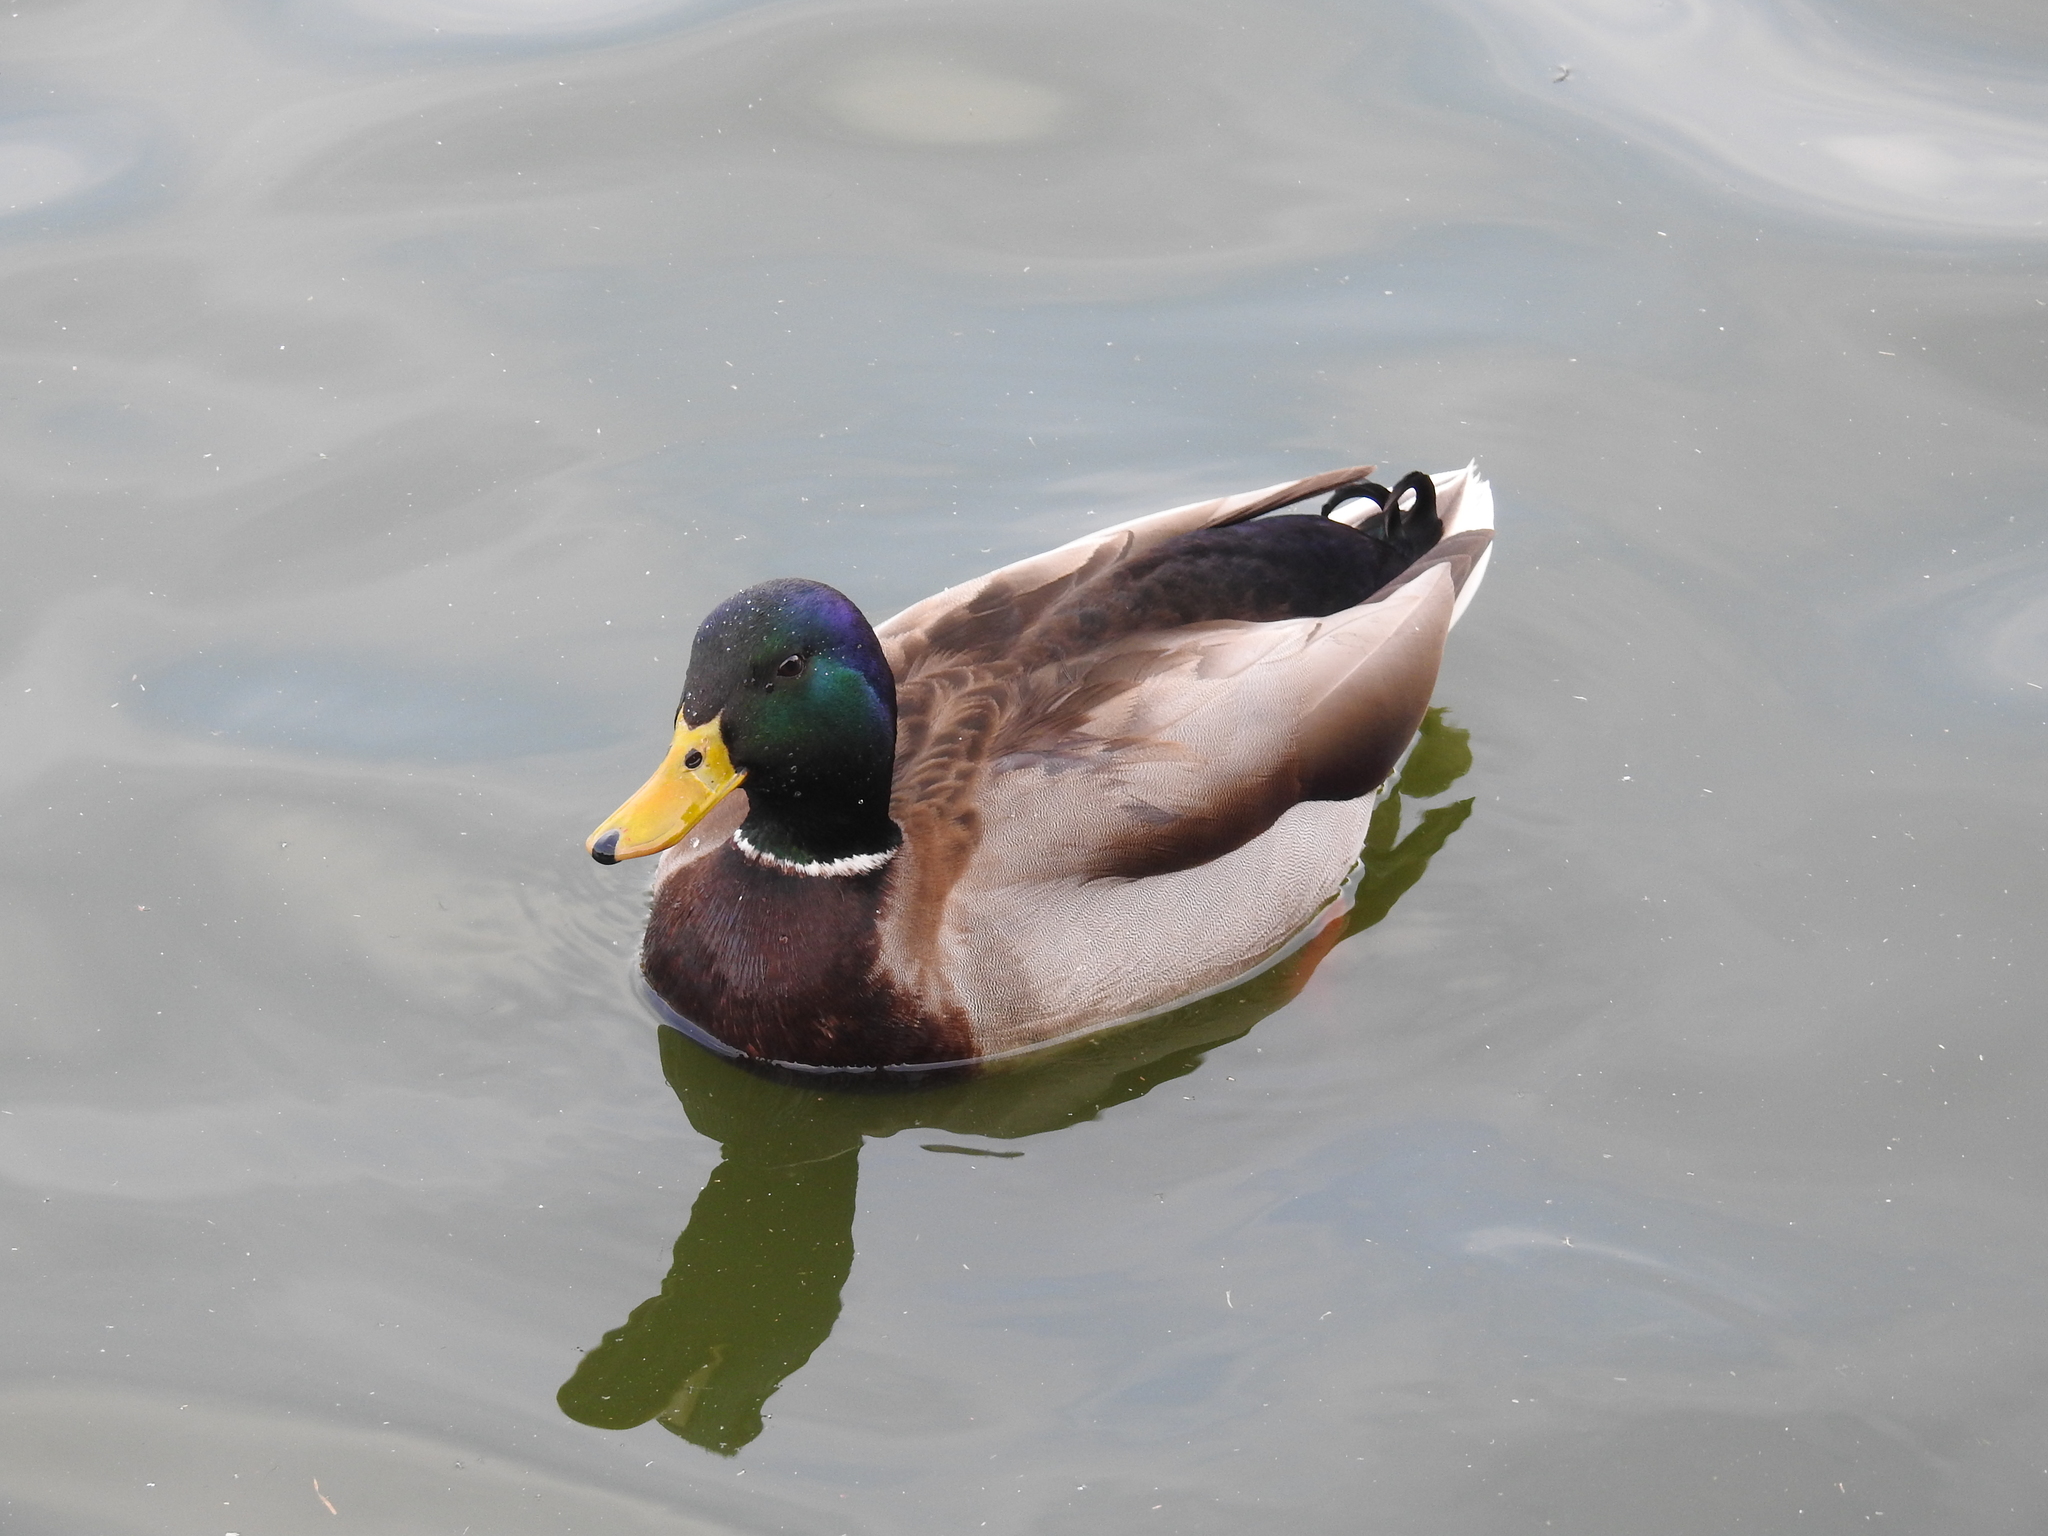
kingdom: Animalia
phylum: Chordata
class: Aves
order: Anseriformes
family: Anatidae
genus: Anas
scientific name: Anas platyrhynchos
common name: Mallard
